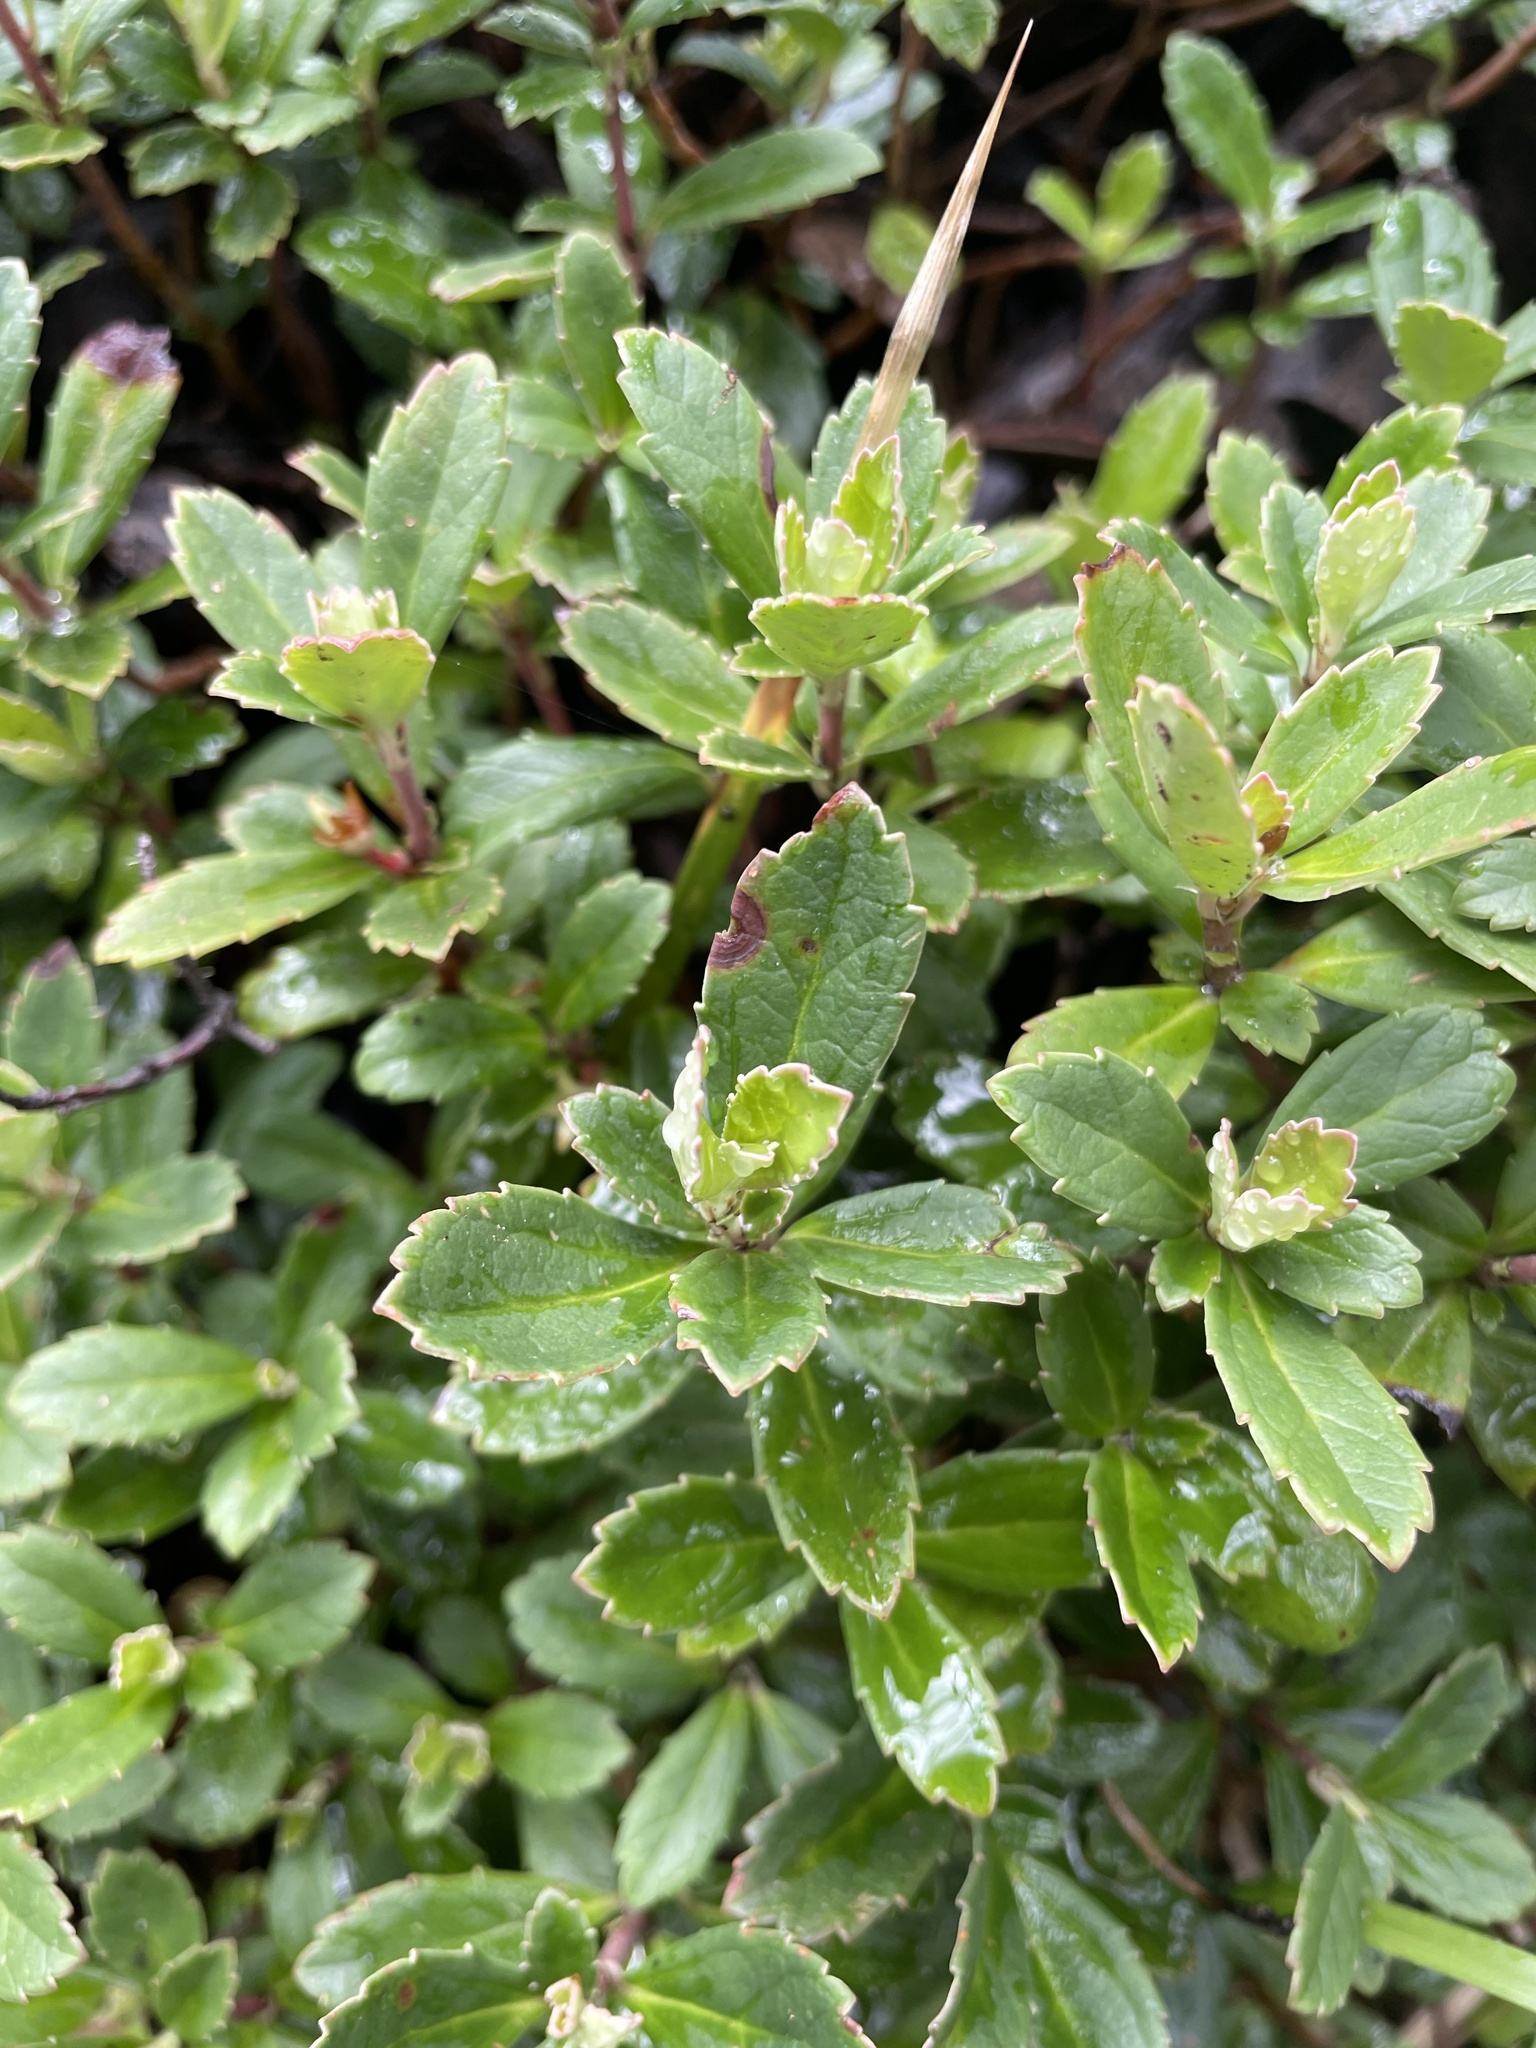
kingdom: Plantae
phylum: Tracheophyta
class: Magnoliopsida
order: Asterales
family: Alseuosmiaceae
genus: Wittsteinia
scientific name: Wittsteinia vacciniacea
